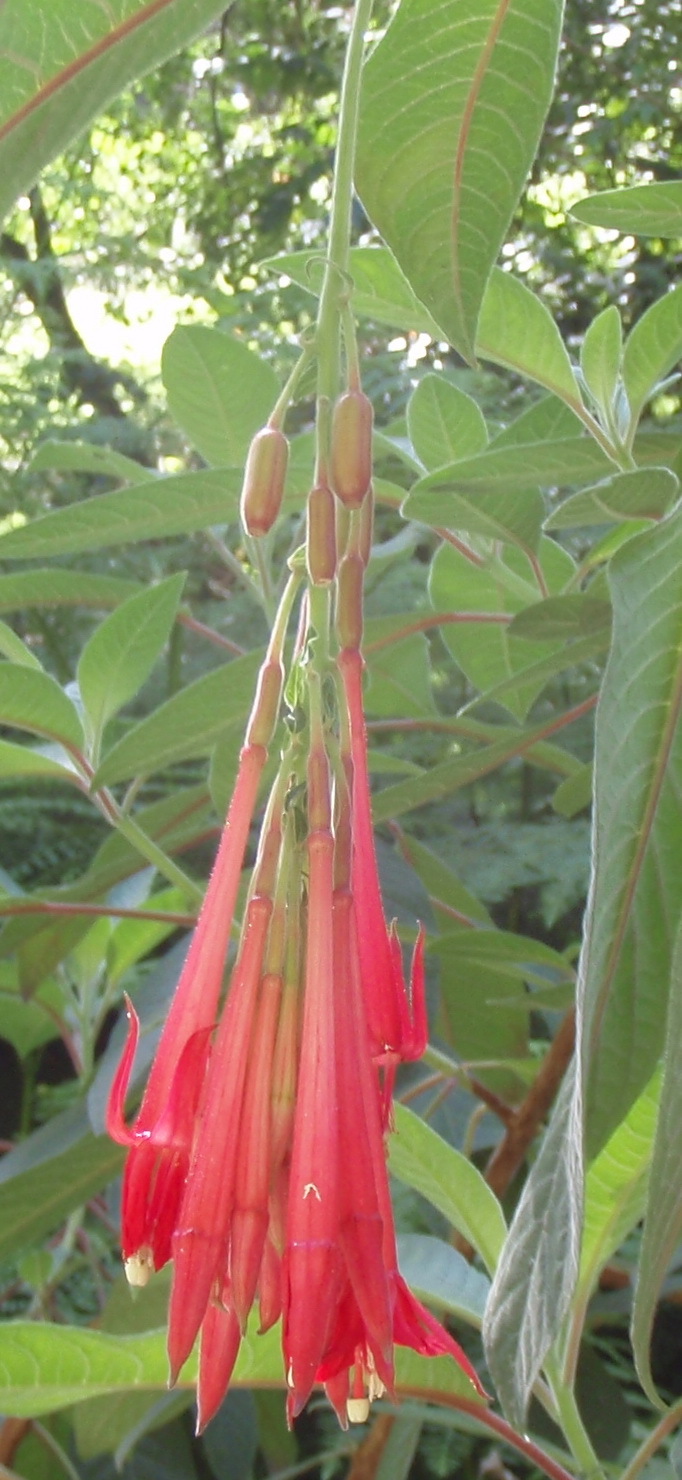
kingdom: Plantae
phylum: Tracheophyta
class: Magnoliopsida
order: Myrtales
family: Onagraceae
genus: Fuchsia
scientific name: Fuchsia boliviana
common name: Bolivian fuchsia
